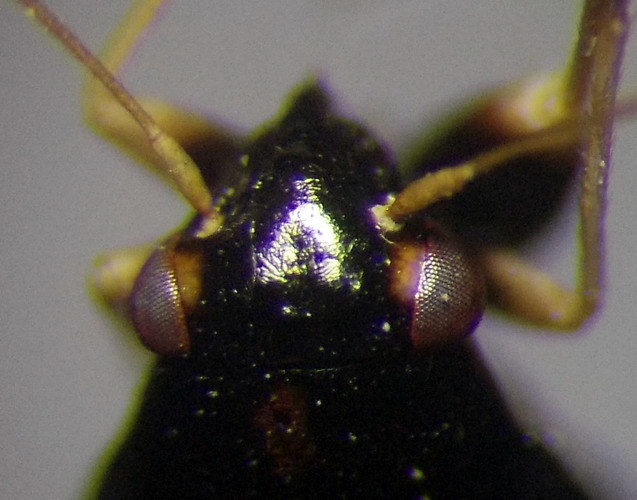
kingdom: Animalia
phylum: Arthropoda
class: Insecta
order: Hemiptera
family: Miridae
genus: Halticus
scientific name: Halticus apterus
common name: Fleahopper
